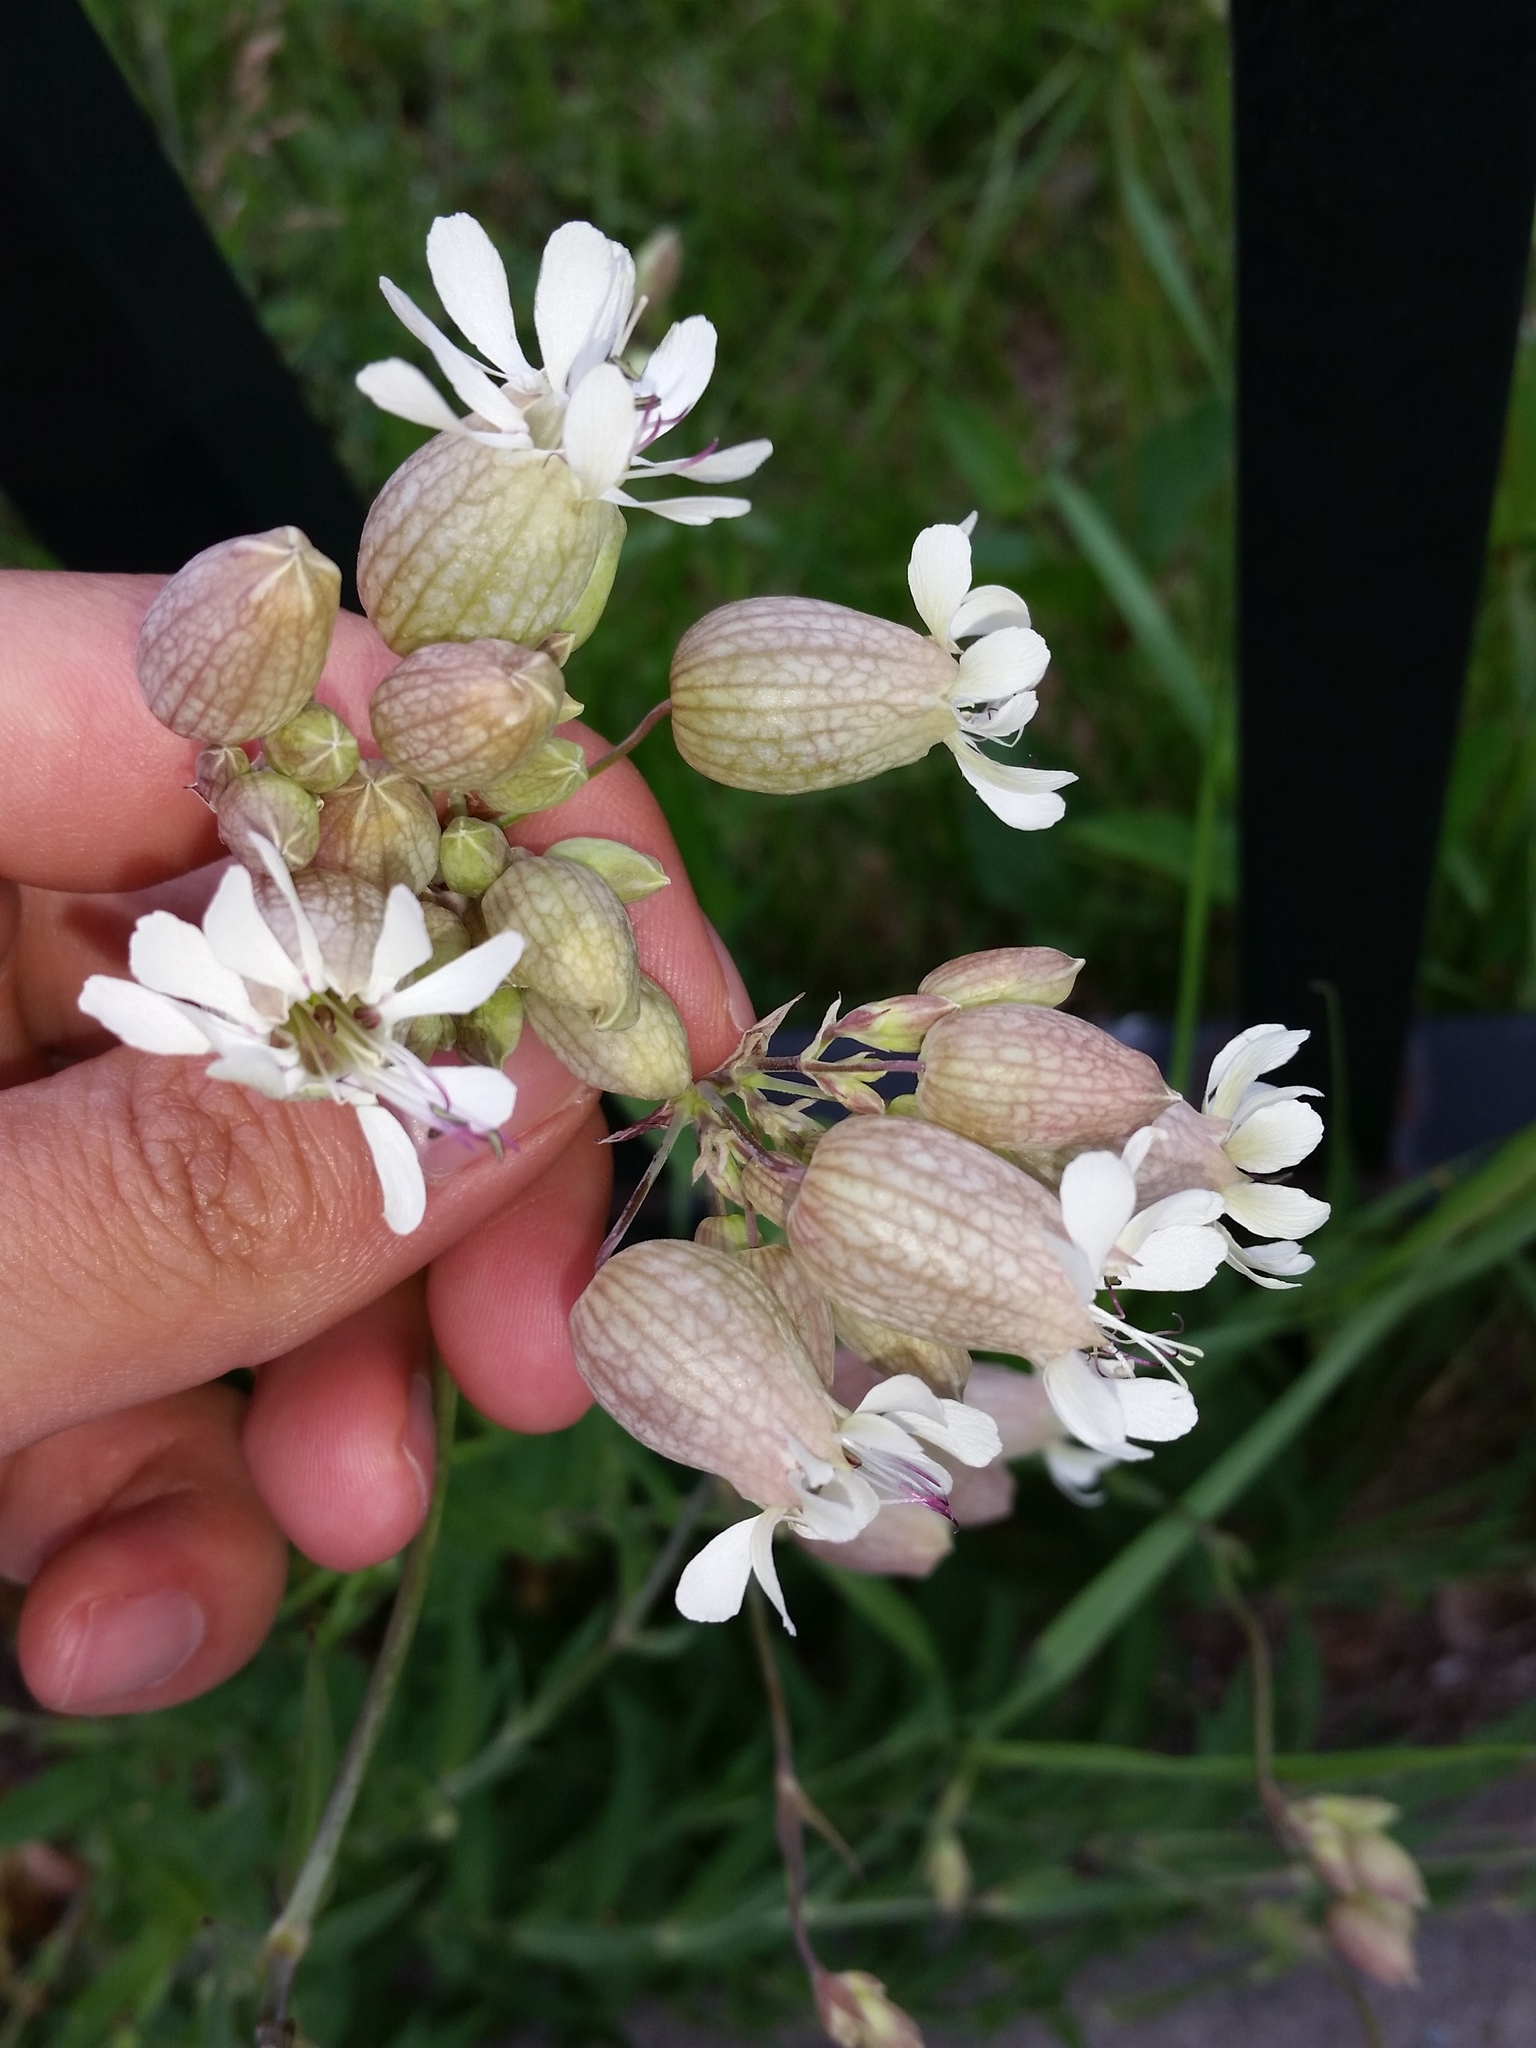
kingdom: Plantae
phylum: Tracheophyta
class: Magnoliopsida
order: Caryophyllales
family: Caryophyllaceae
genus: Silene
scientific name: Silene vulgaris
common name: Bladder campion
